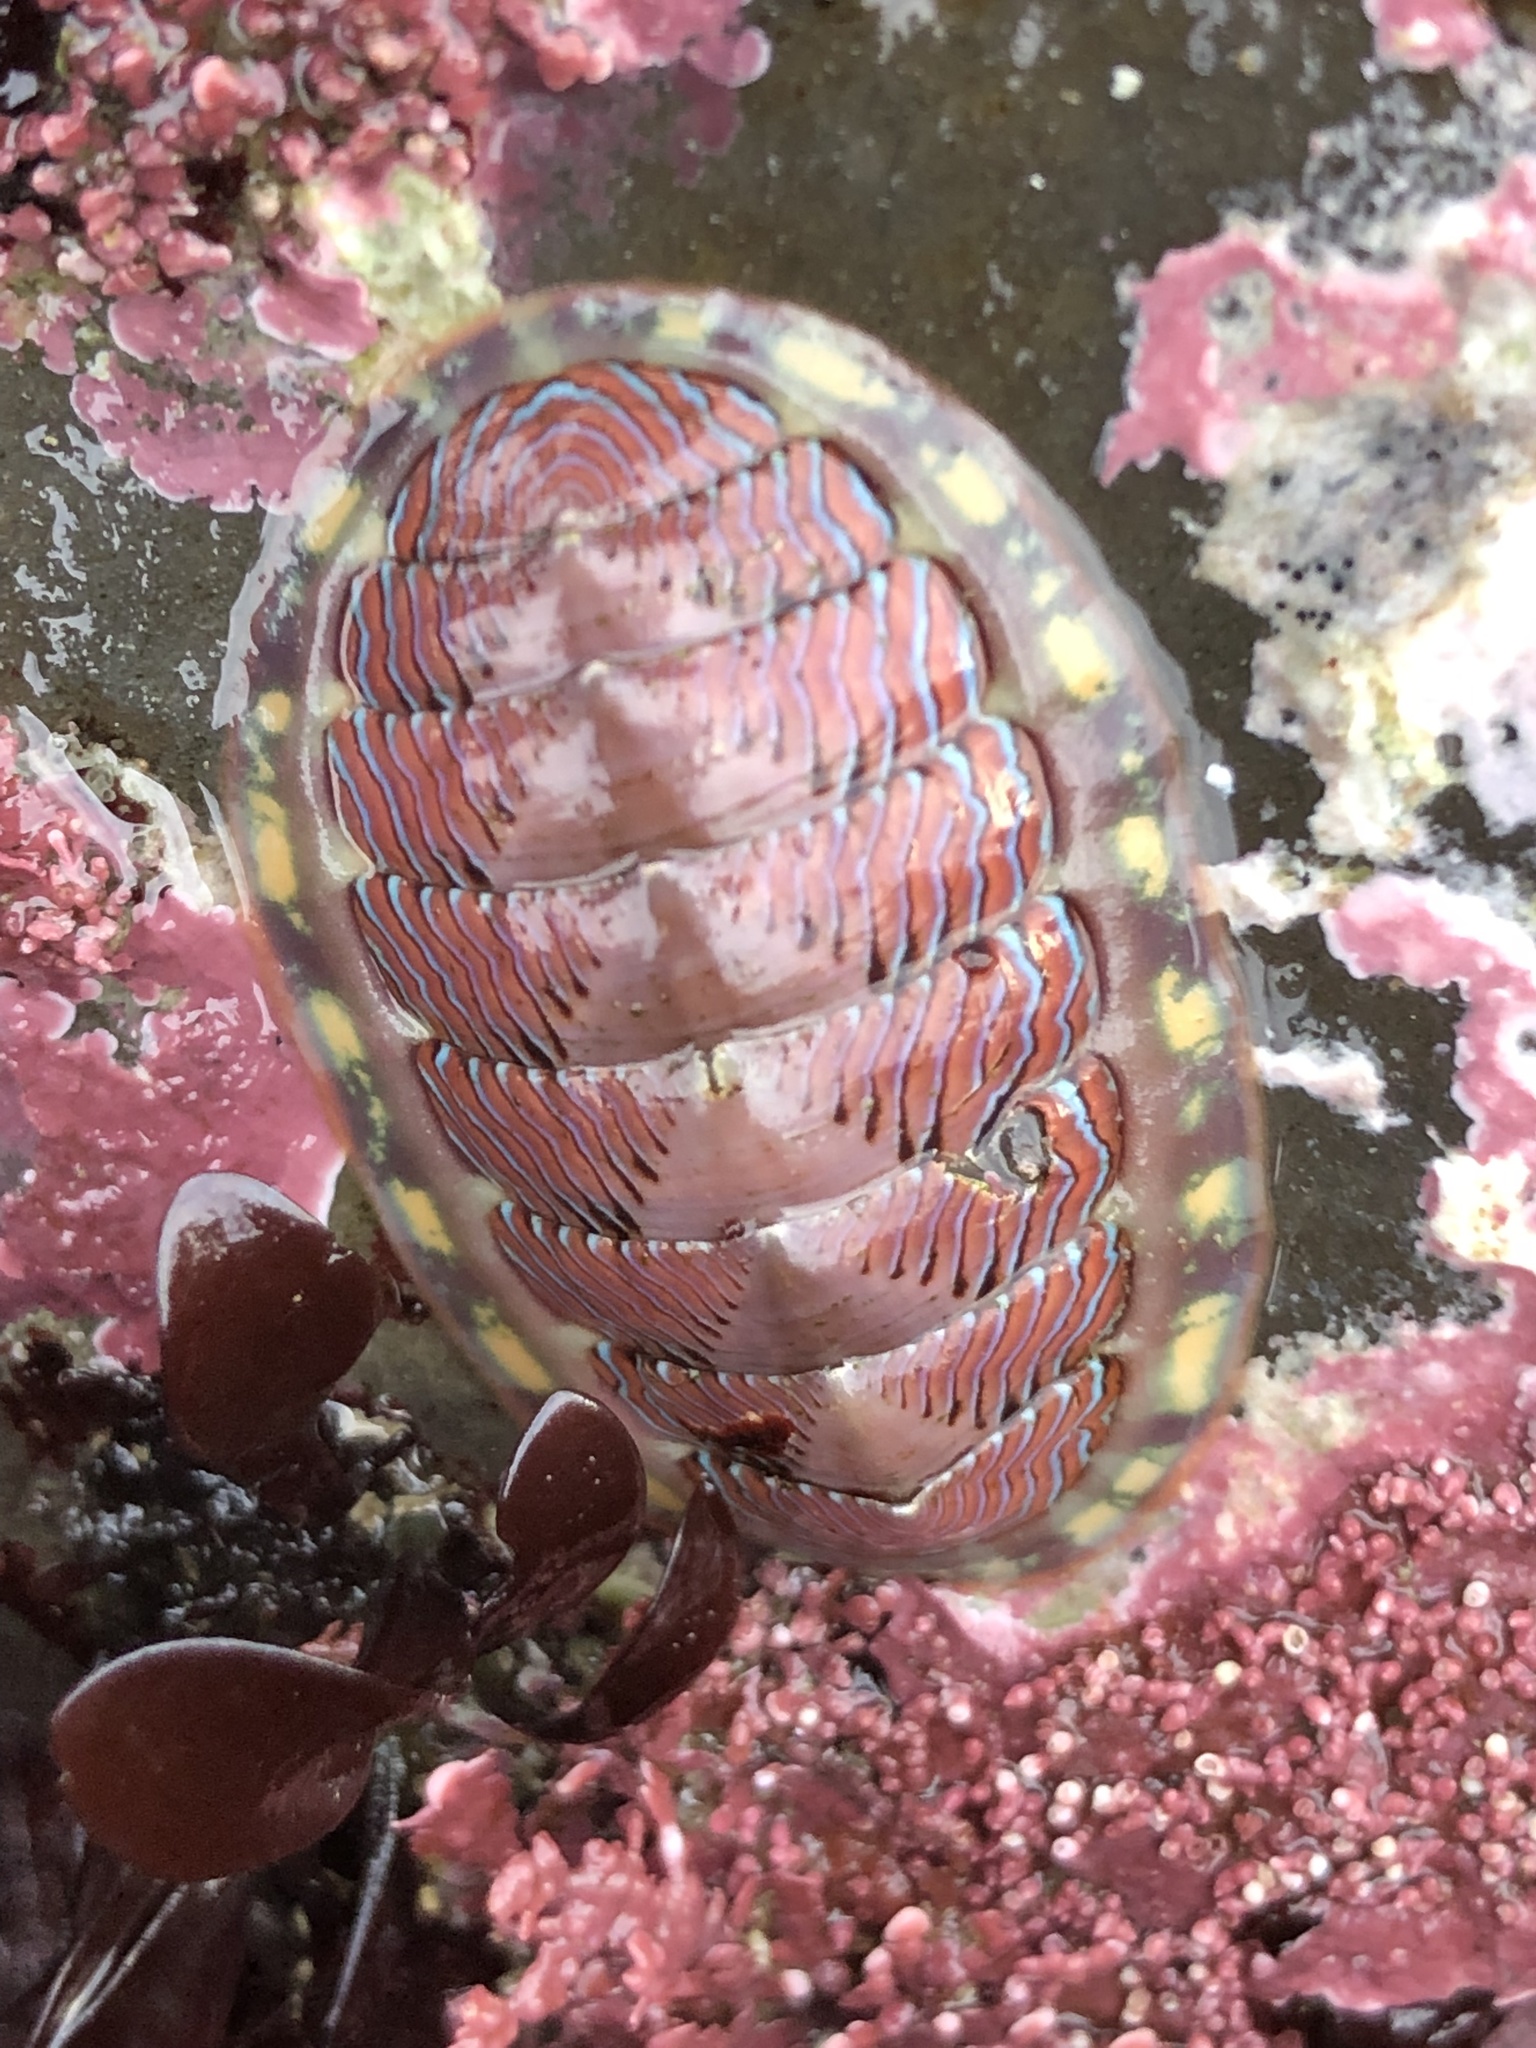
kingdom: Animalia
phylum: Mollusca
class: Polyplacophora
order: Chitonida
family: Tonicellidae
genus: Tonicella
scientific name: Tonicella lineata
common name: Lined chiton
